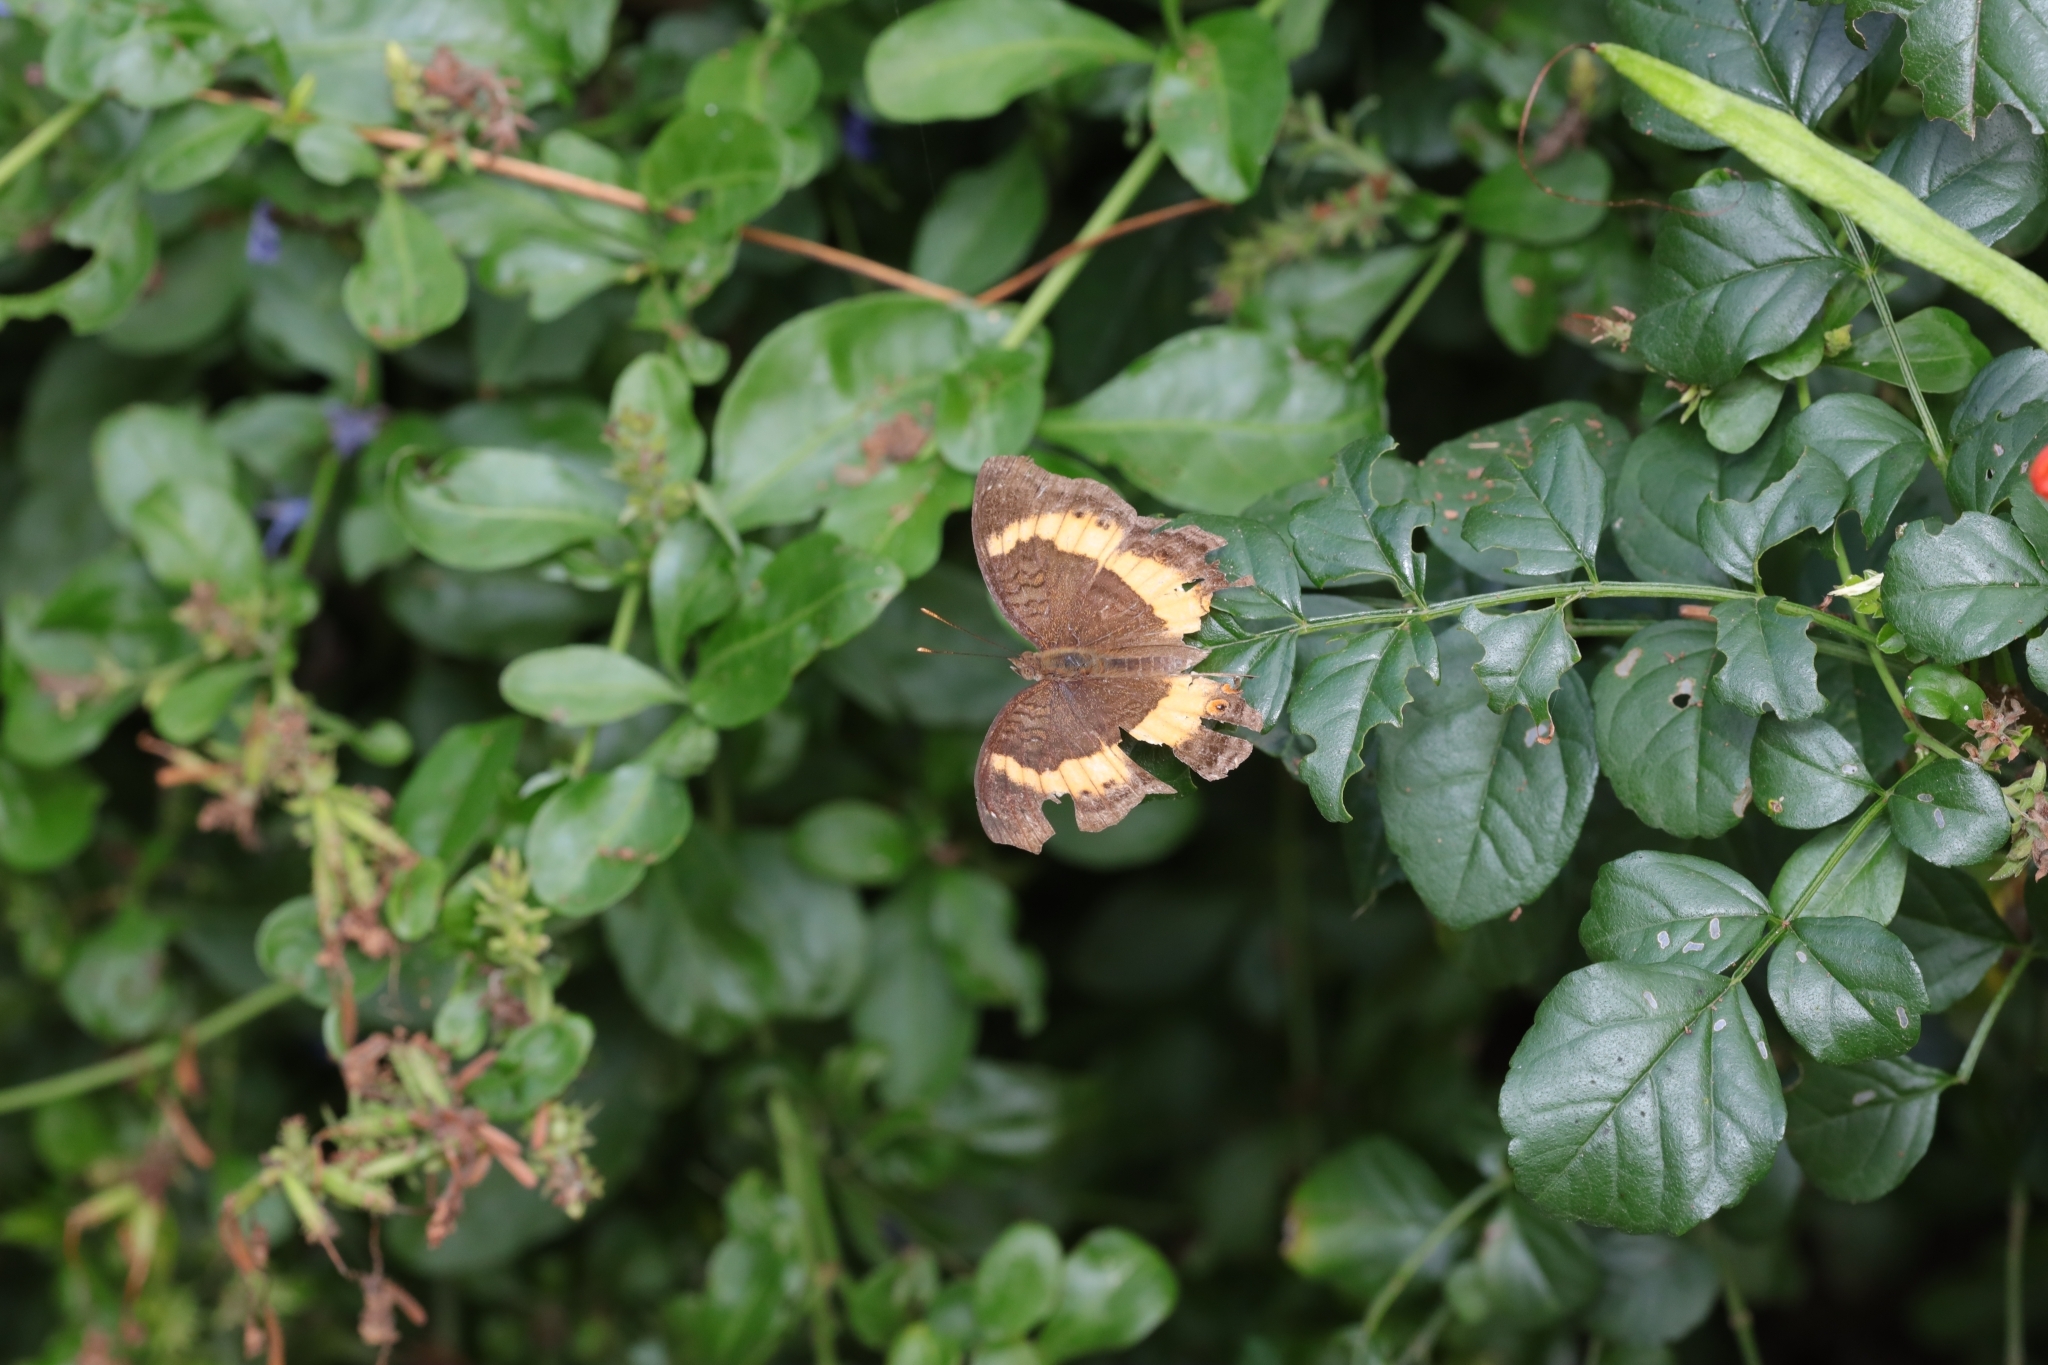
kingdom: Animalia
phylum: Arthropoda
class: Insecta
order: Lepidoptera
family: Nymphalidae
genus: Junonia
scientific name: Junonia terea
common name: Soldier pansy
